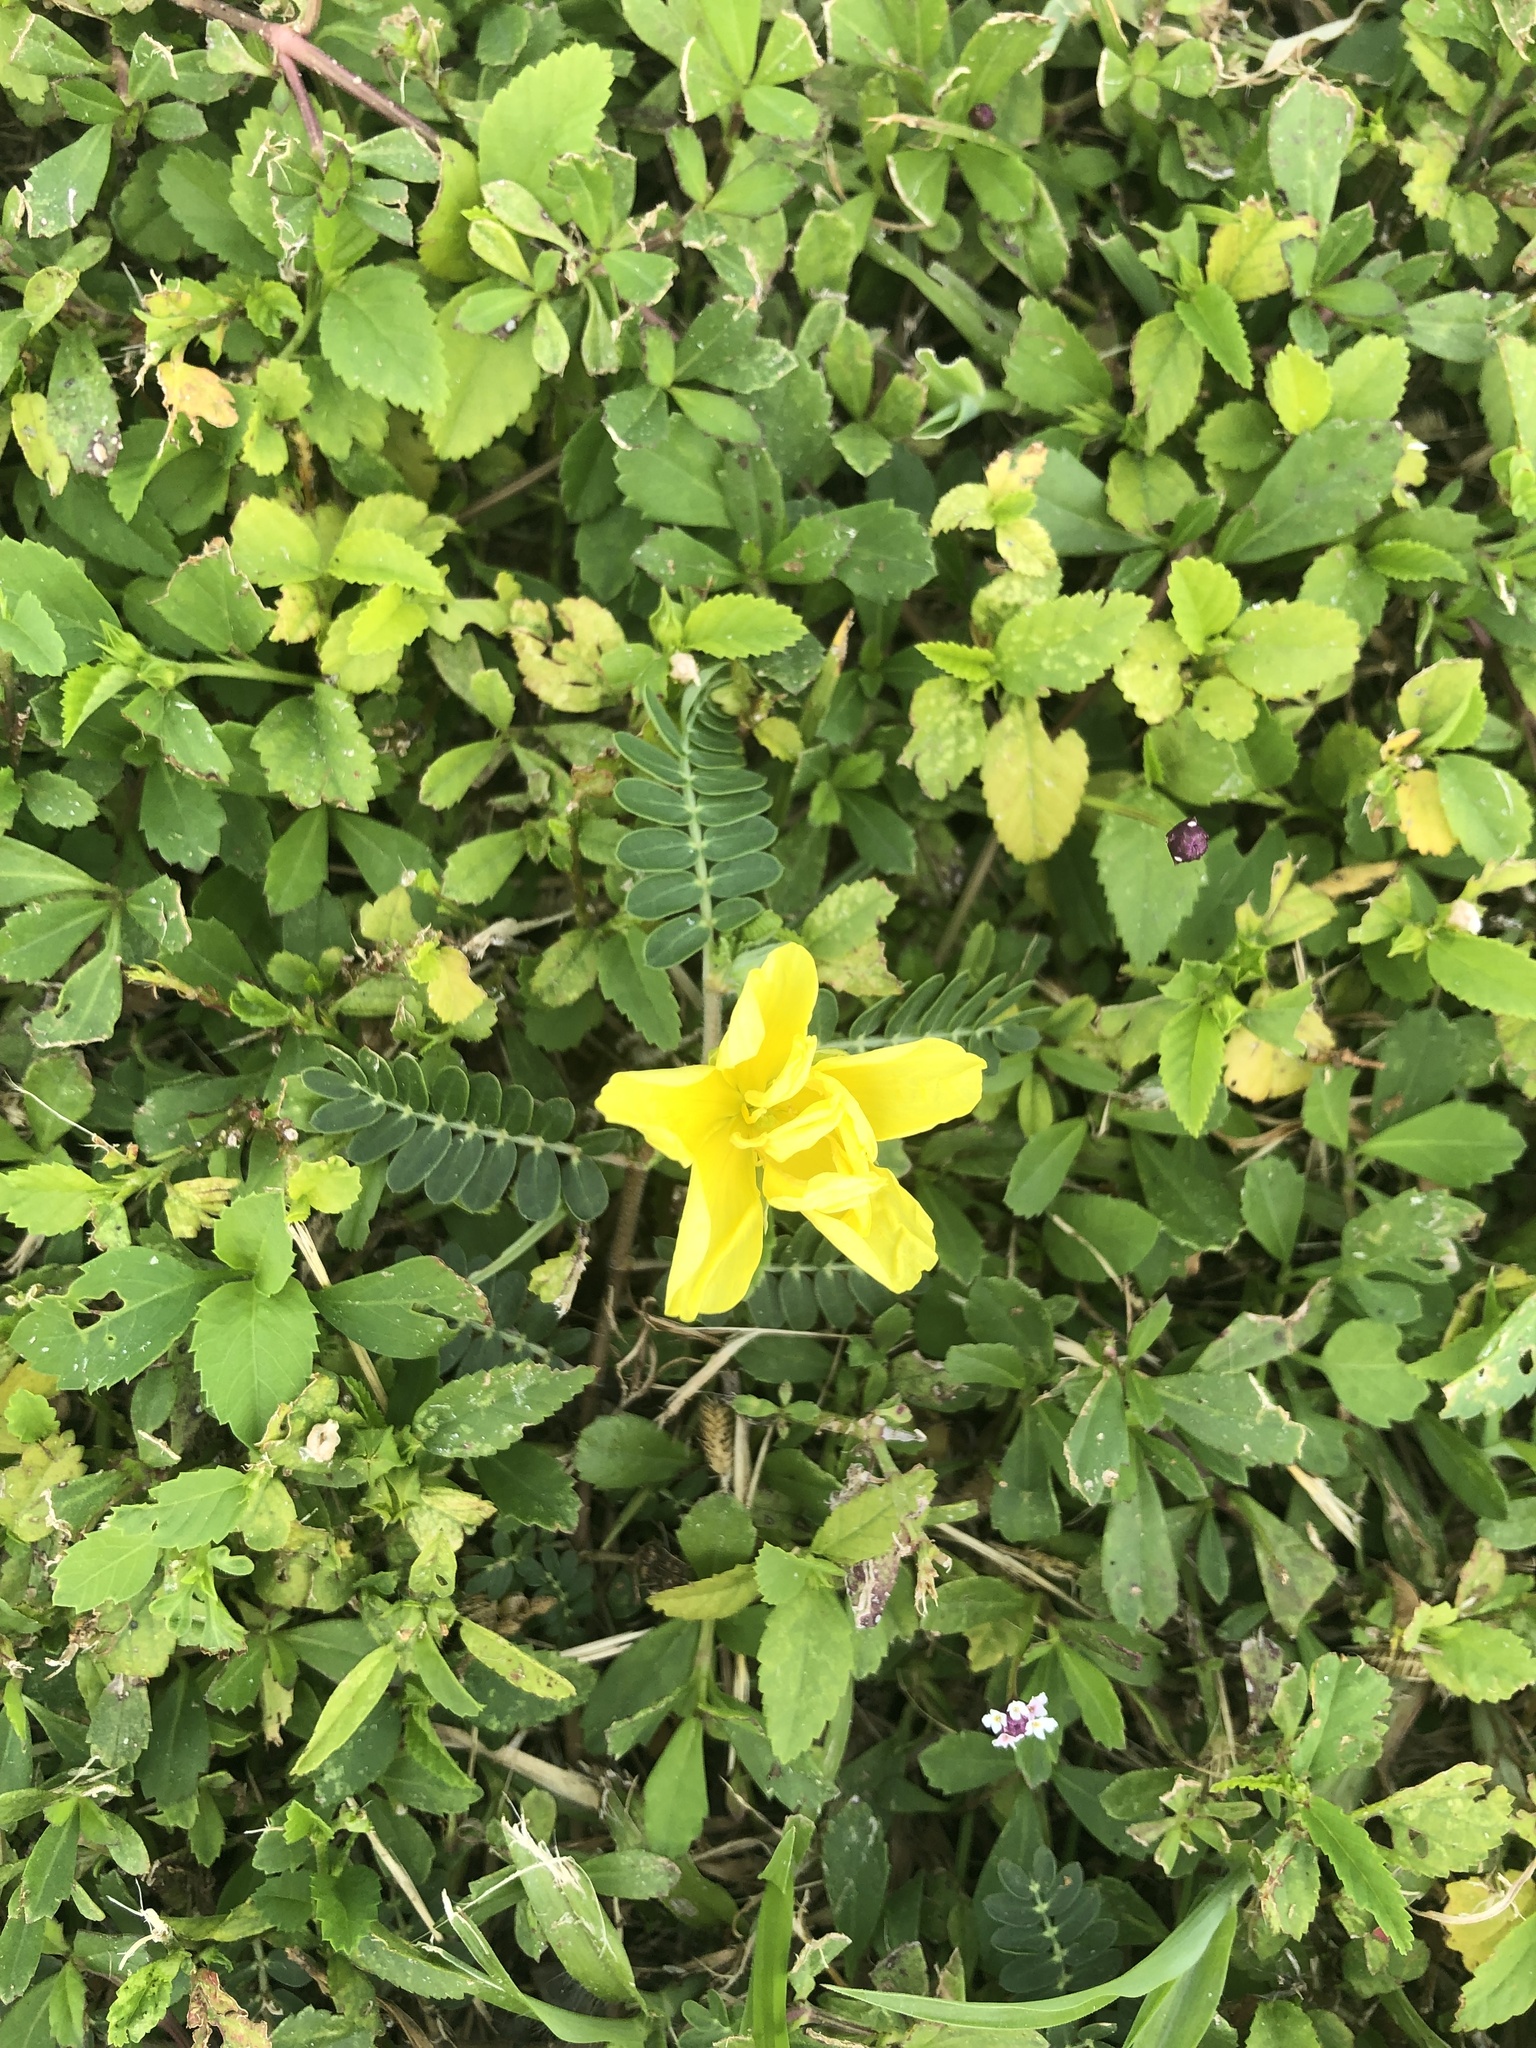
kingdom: Plantae
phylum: Tracheophyta
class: Magnoliopsida
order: Zygophyllales
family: Zygophyllaceae
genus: Tribulus
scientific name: Tribulus cistoides
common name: Jamaican feverplant
